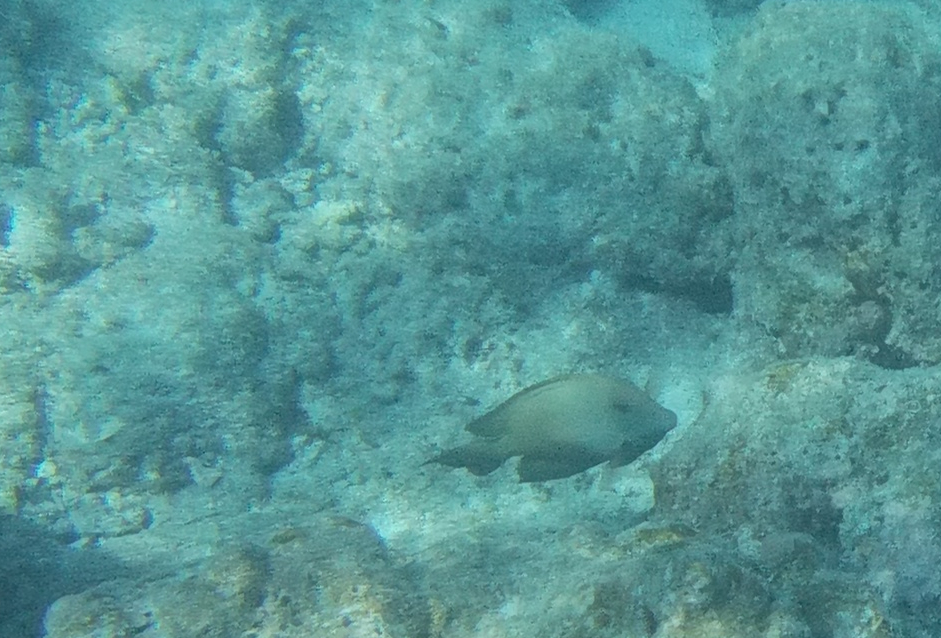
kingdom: Animalia
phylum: Chordata
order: Perciformes
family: Acanthuridae
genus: Ctenochaetus
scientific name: Ctenochaetus striatus
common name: Bristle-toothed surgeonfish
